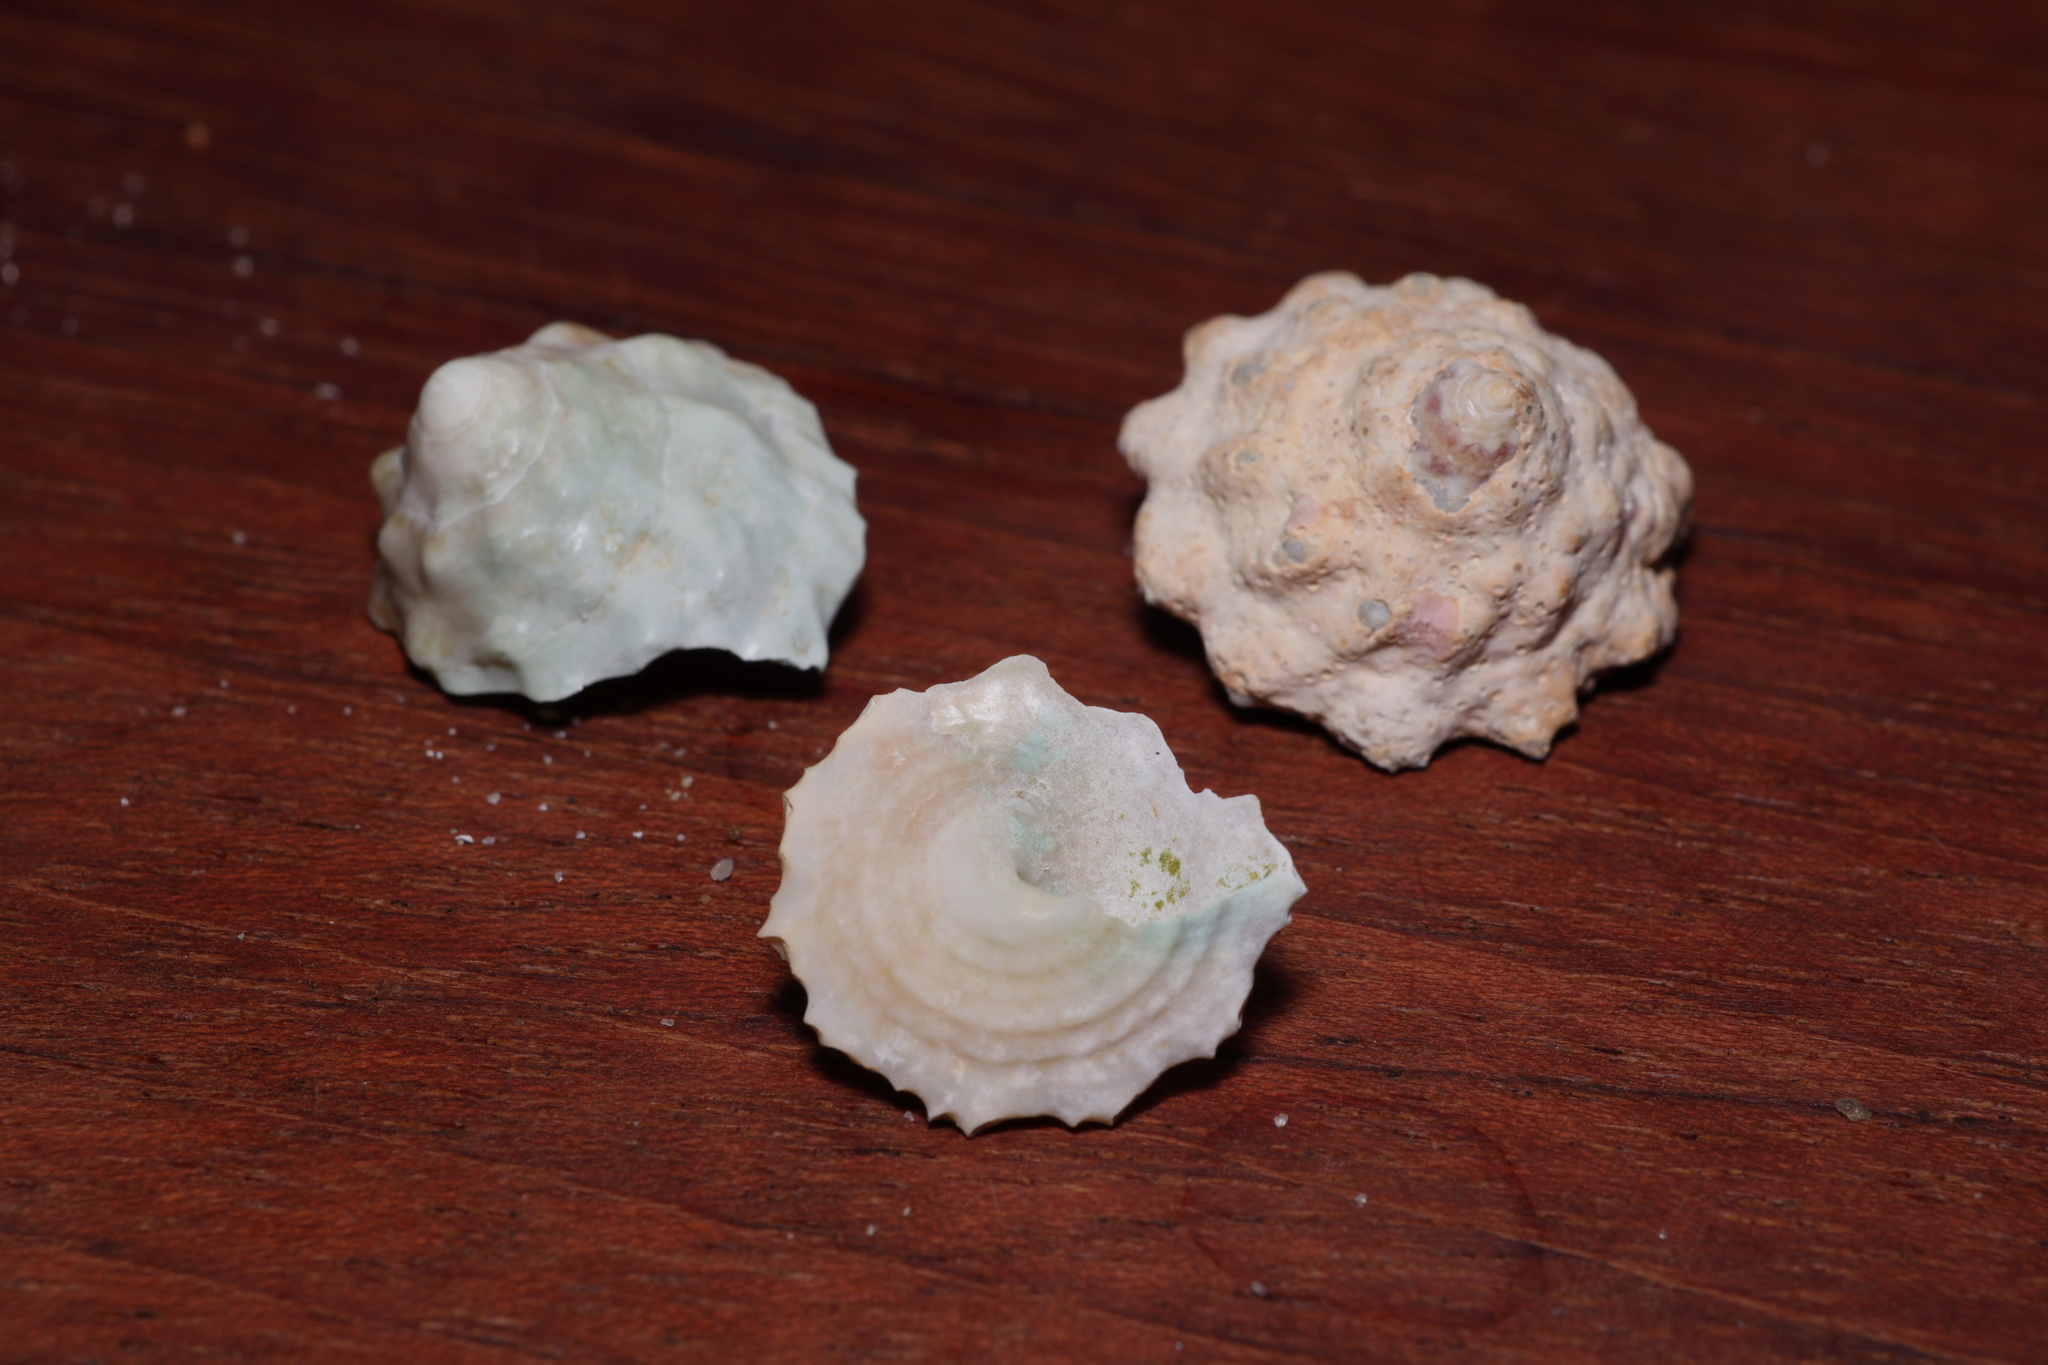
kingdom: Animalia
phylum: Mollusca
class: Gastropoda
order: Trochida
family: Turbinidae
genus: Lithopoma
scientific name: Lithopoma tectum
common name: West indian starsnail
